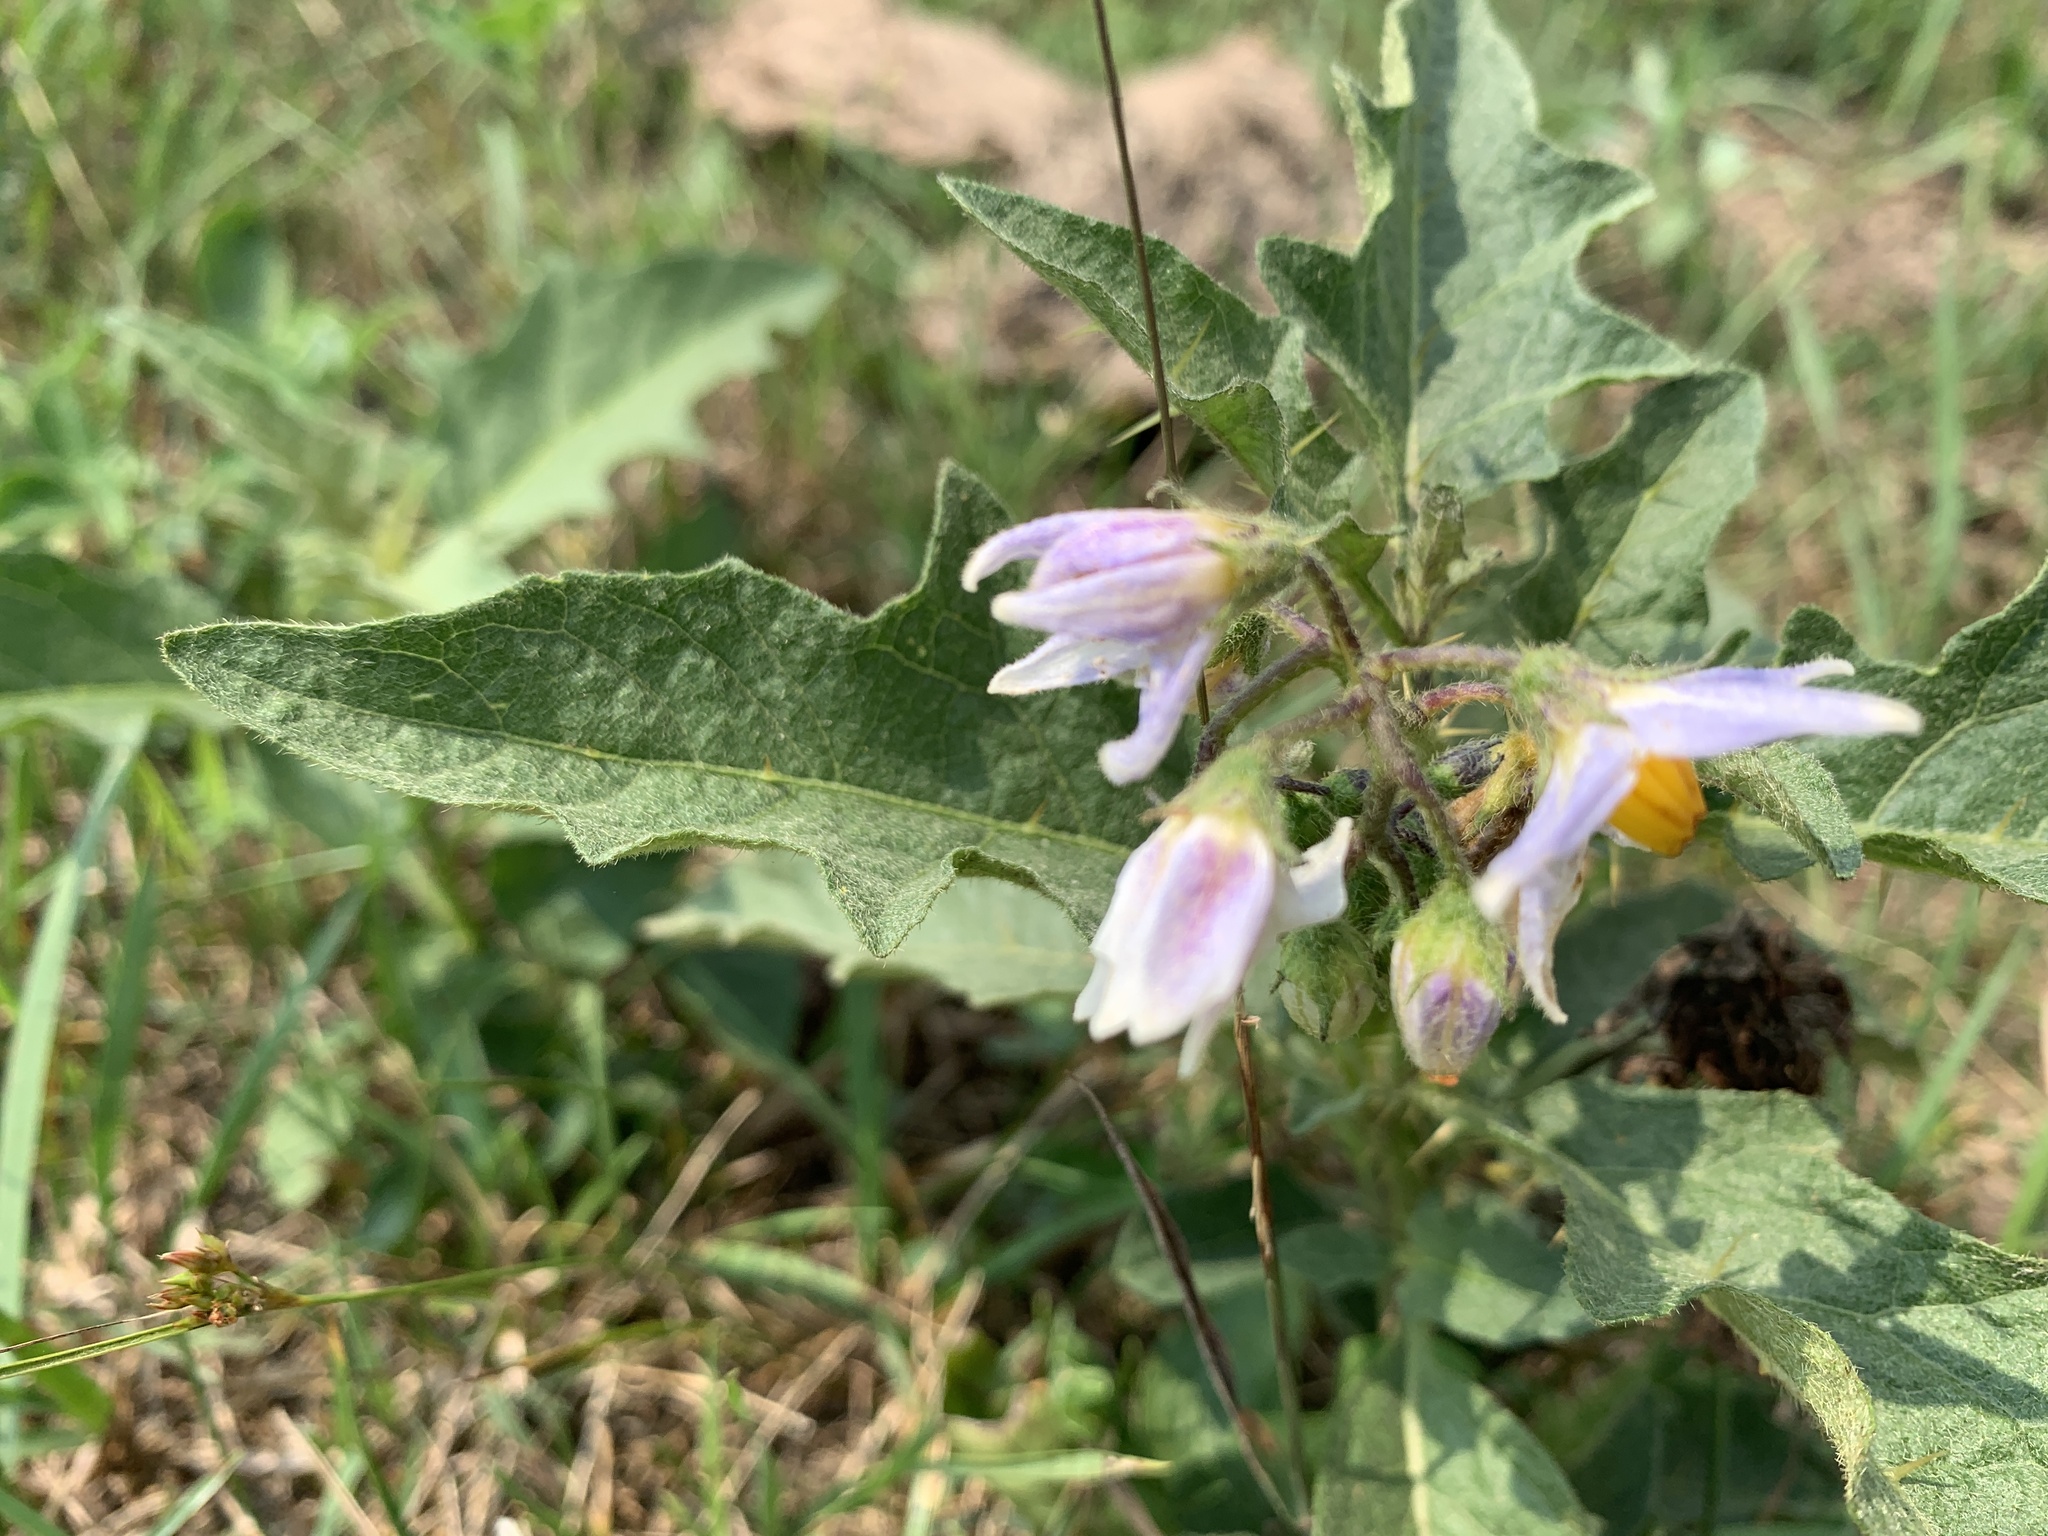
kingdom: Plantae
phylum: Tracheophyta
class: Magnoliopsida
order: Solanales
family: Solanaceae
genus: Solanum
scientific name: Solanum carolinense
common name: Horse-nettle
